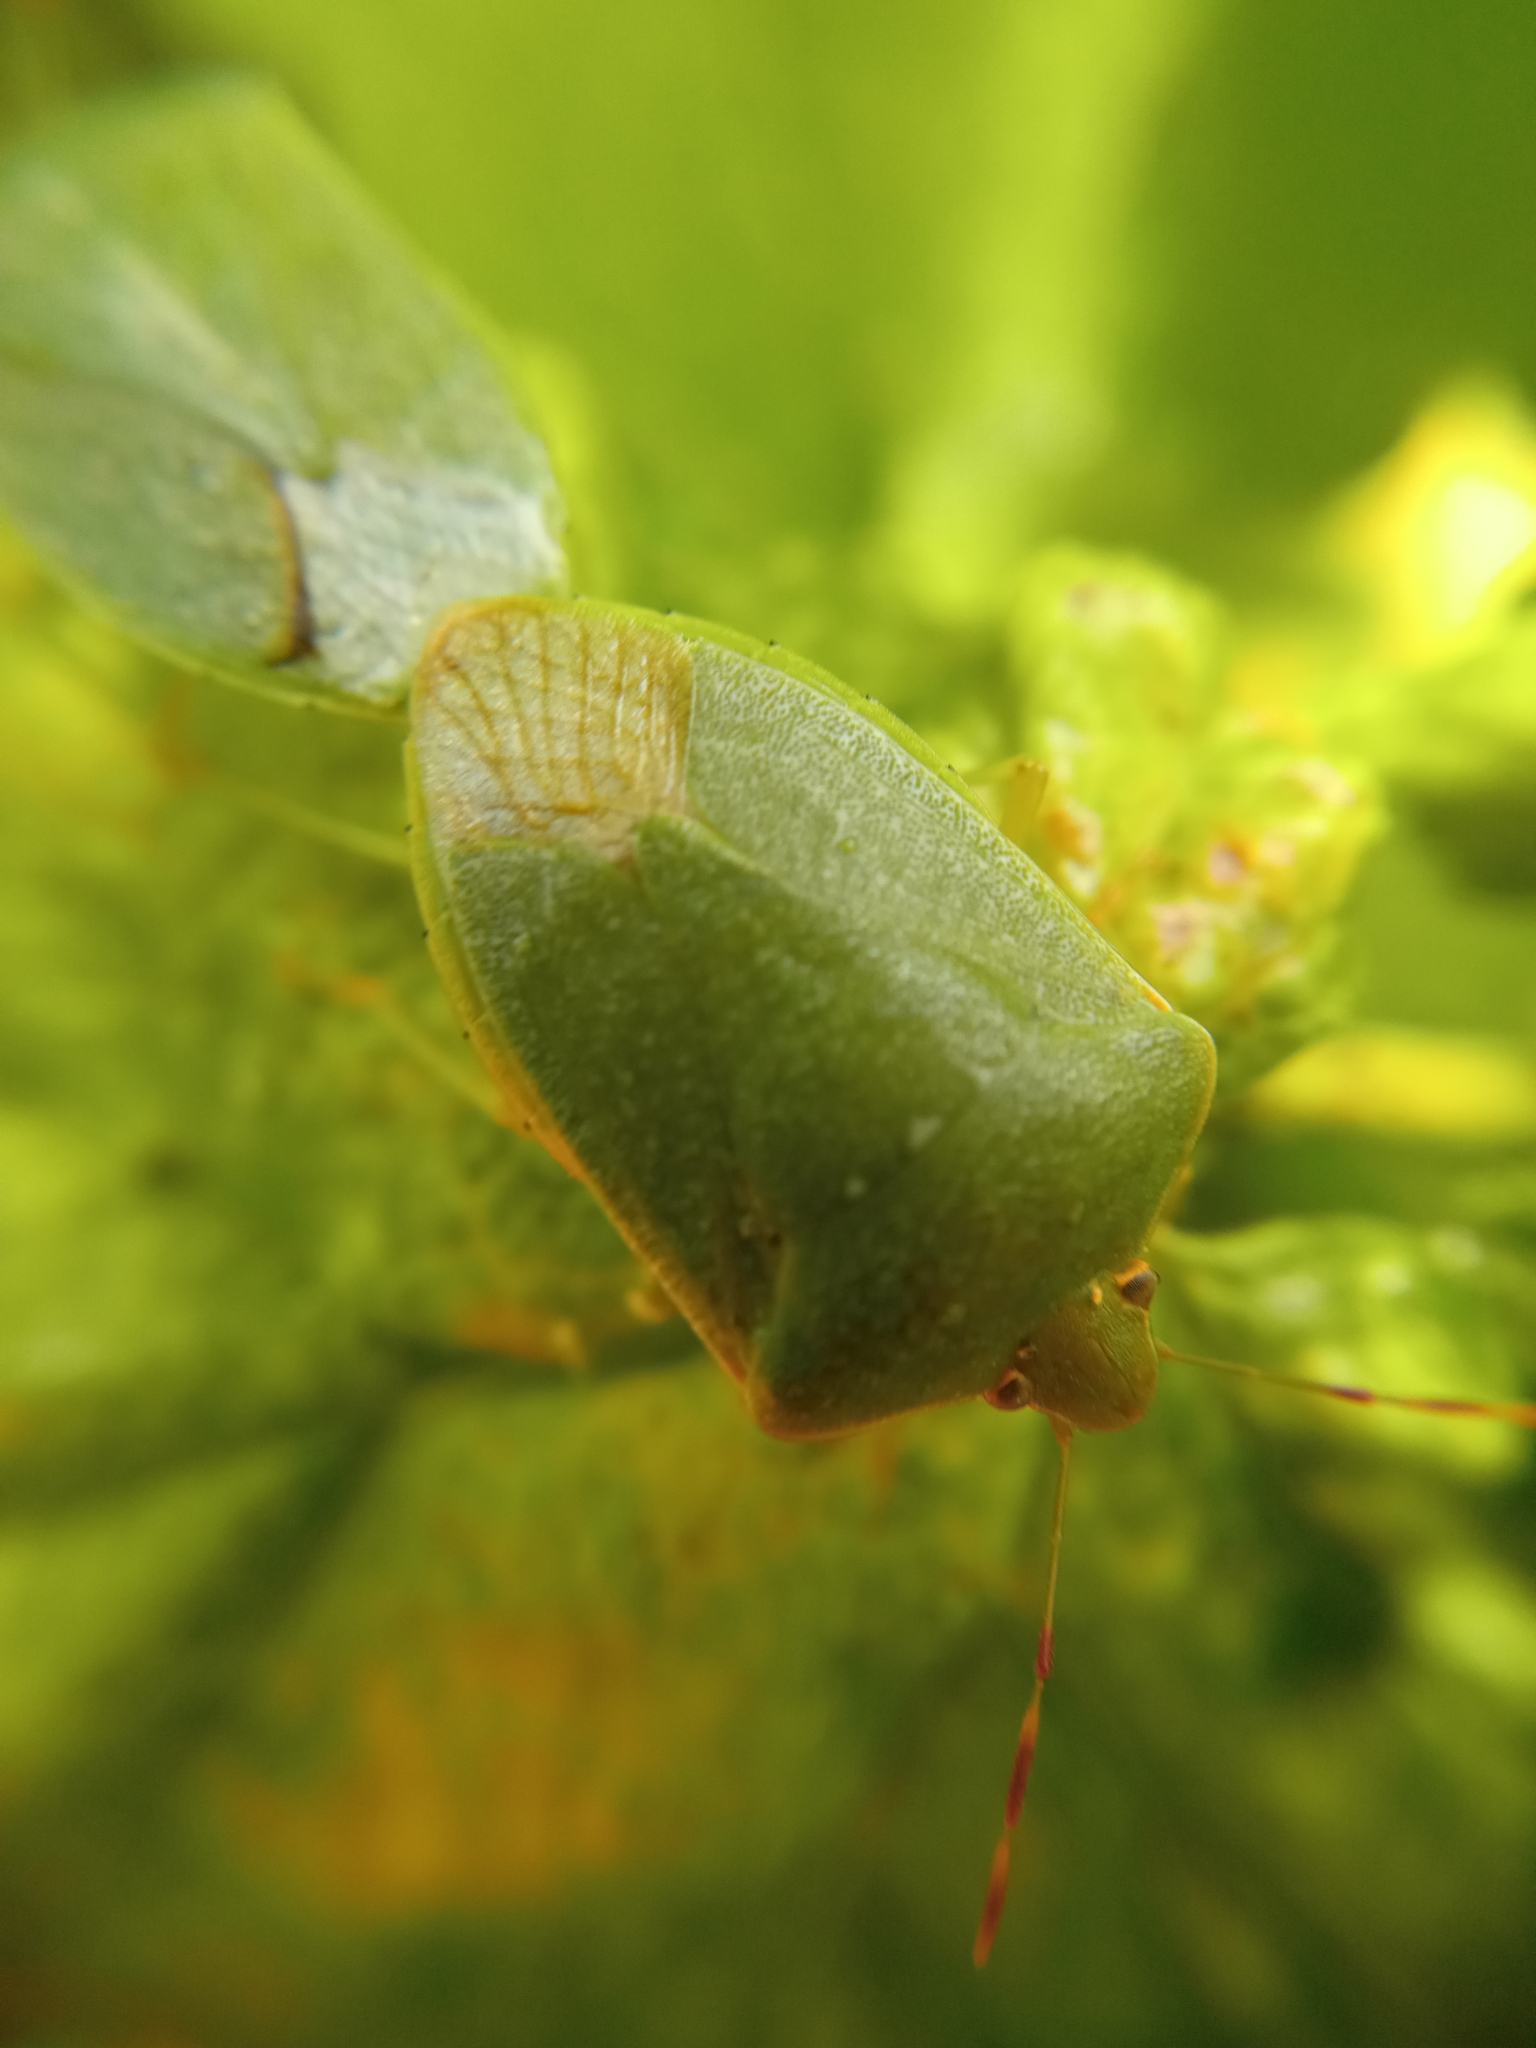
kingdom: Animalia
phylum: Arthropoda
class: Insecta
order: Hemiptera
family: Pentatomidae
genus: Nezara
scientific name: Nezara viridula
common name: Southern green stink bug
